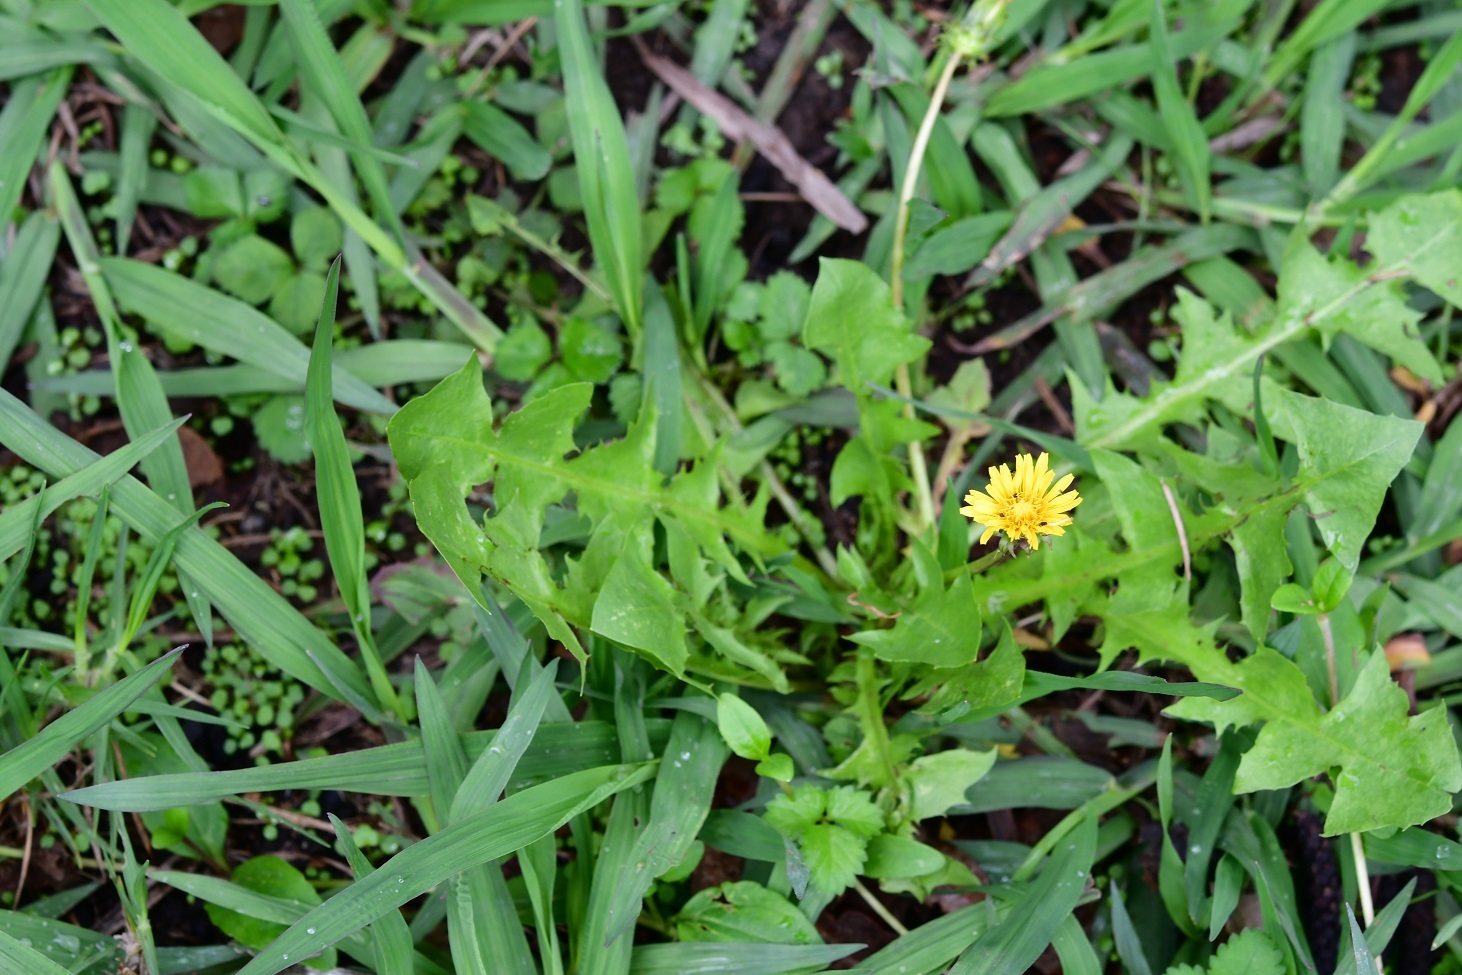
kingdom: Plantae
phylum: Tracheophyta
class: Magnoliopsida
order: Asterales
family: Asteraceae
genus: Taraxacum
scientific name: Taraxacum officinale
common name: Common dandelion
